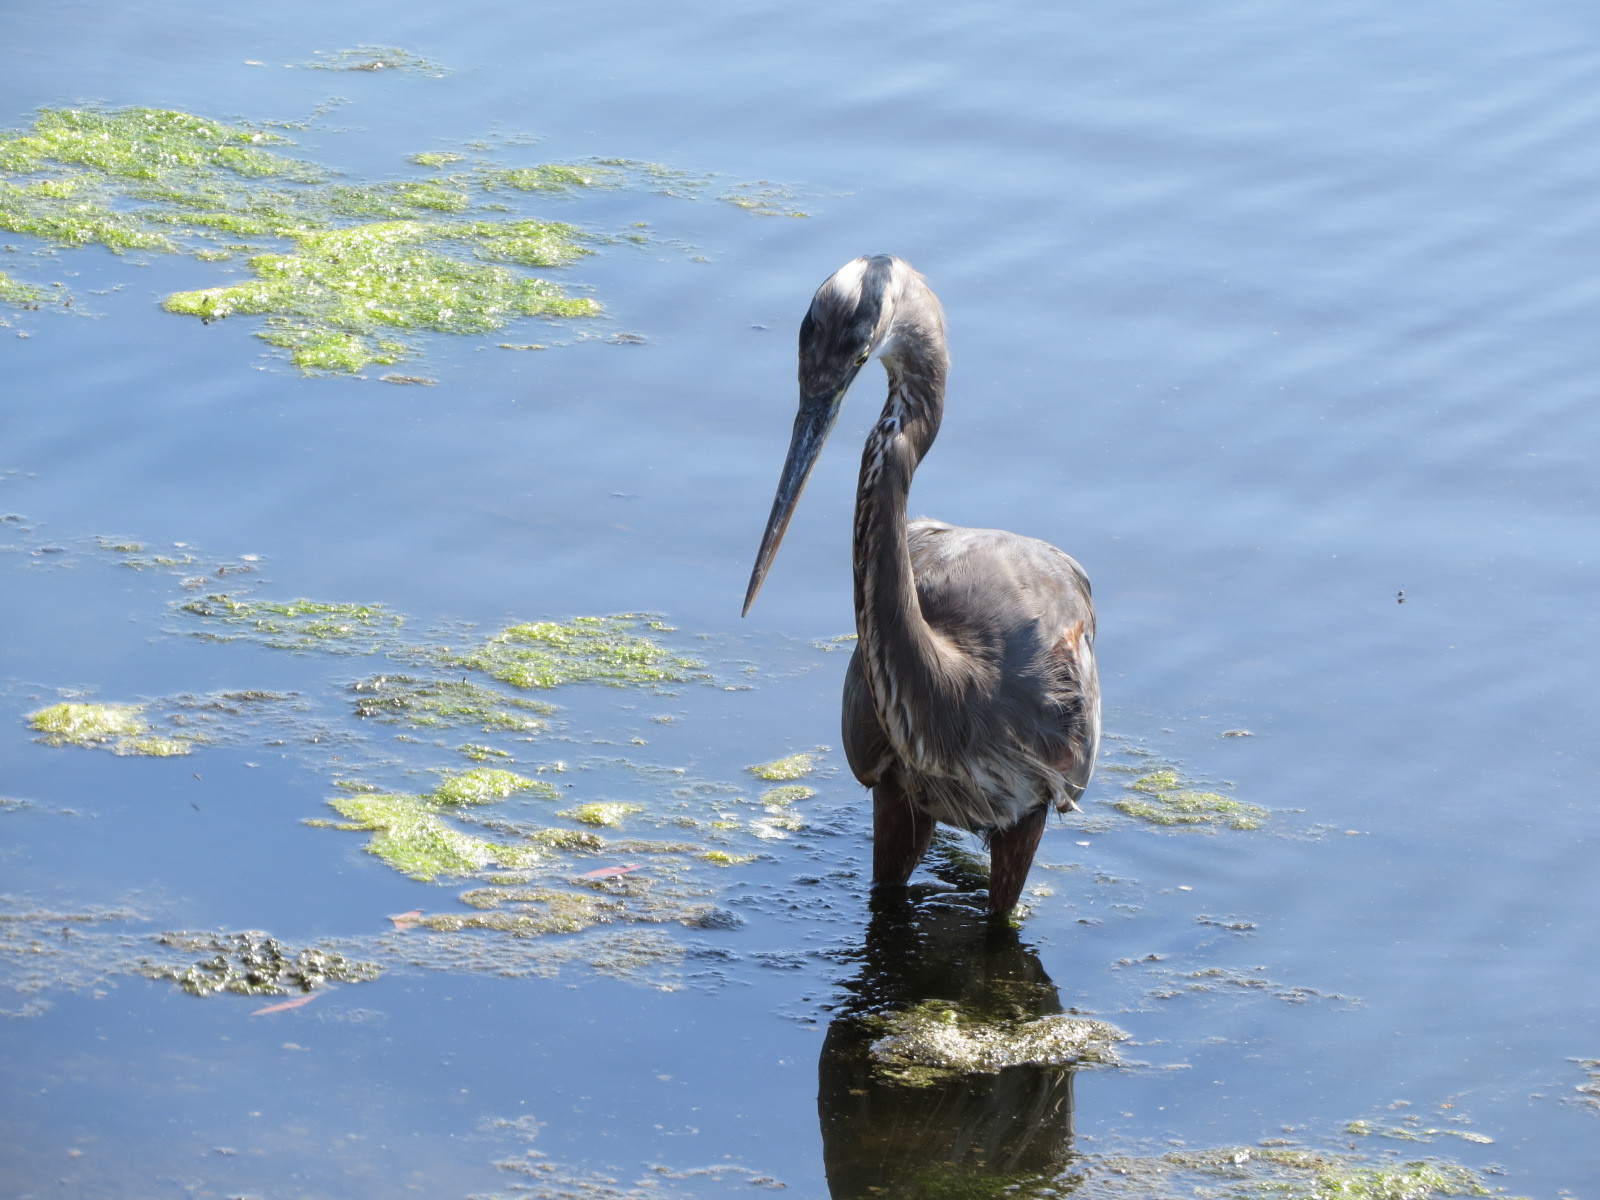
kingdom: Animalia
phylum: Chordata
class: Aves
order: Pelecaniformes
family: Ardeidae
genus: Ardea
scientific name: Ardea herodias
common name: Great blue heron
